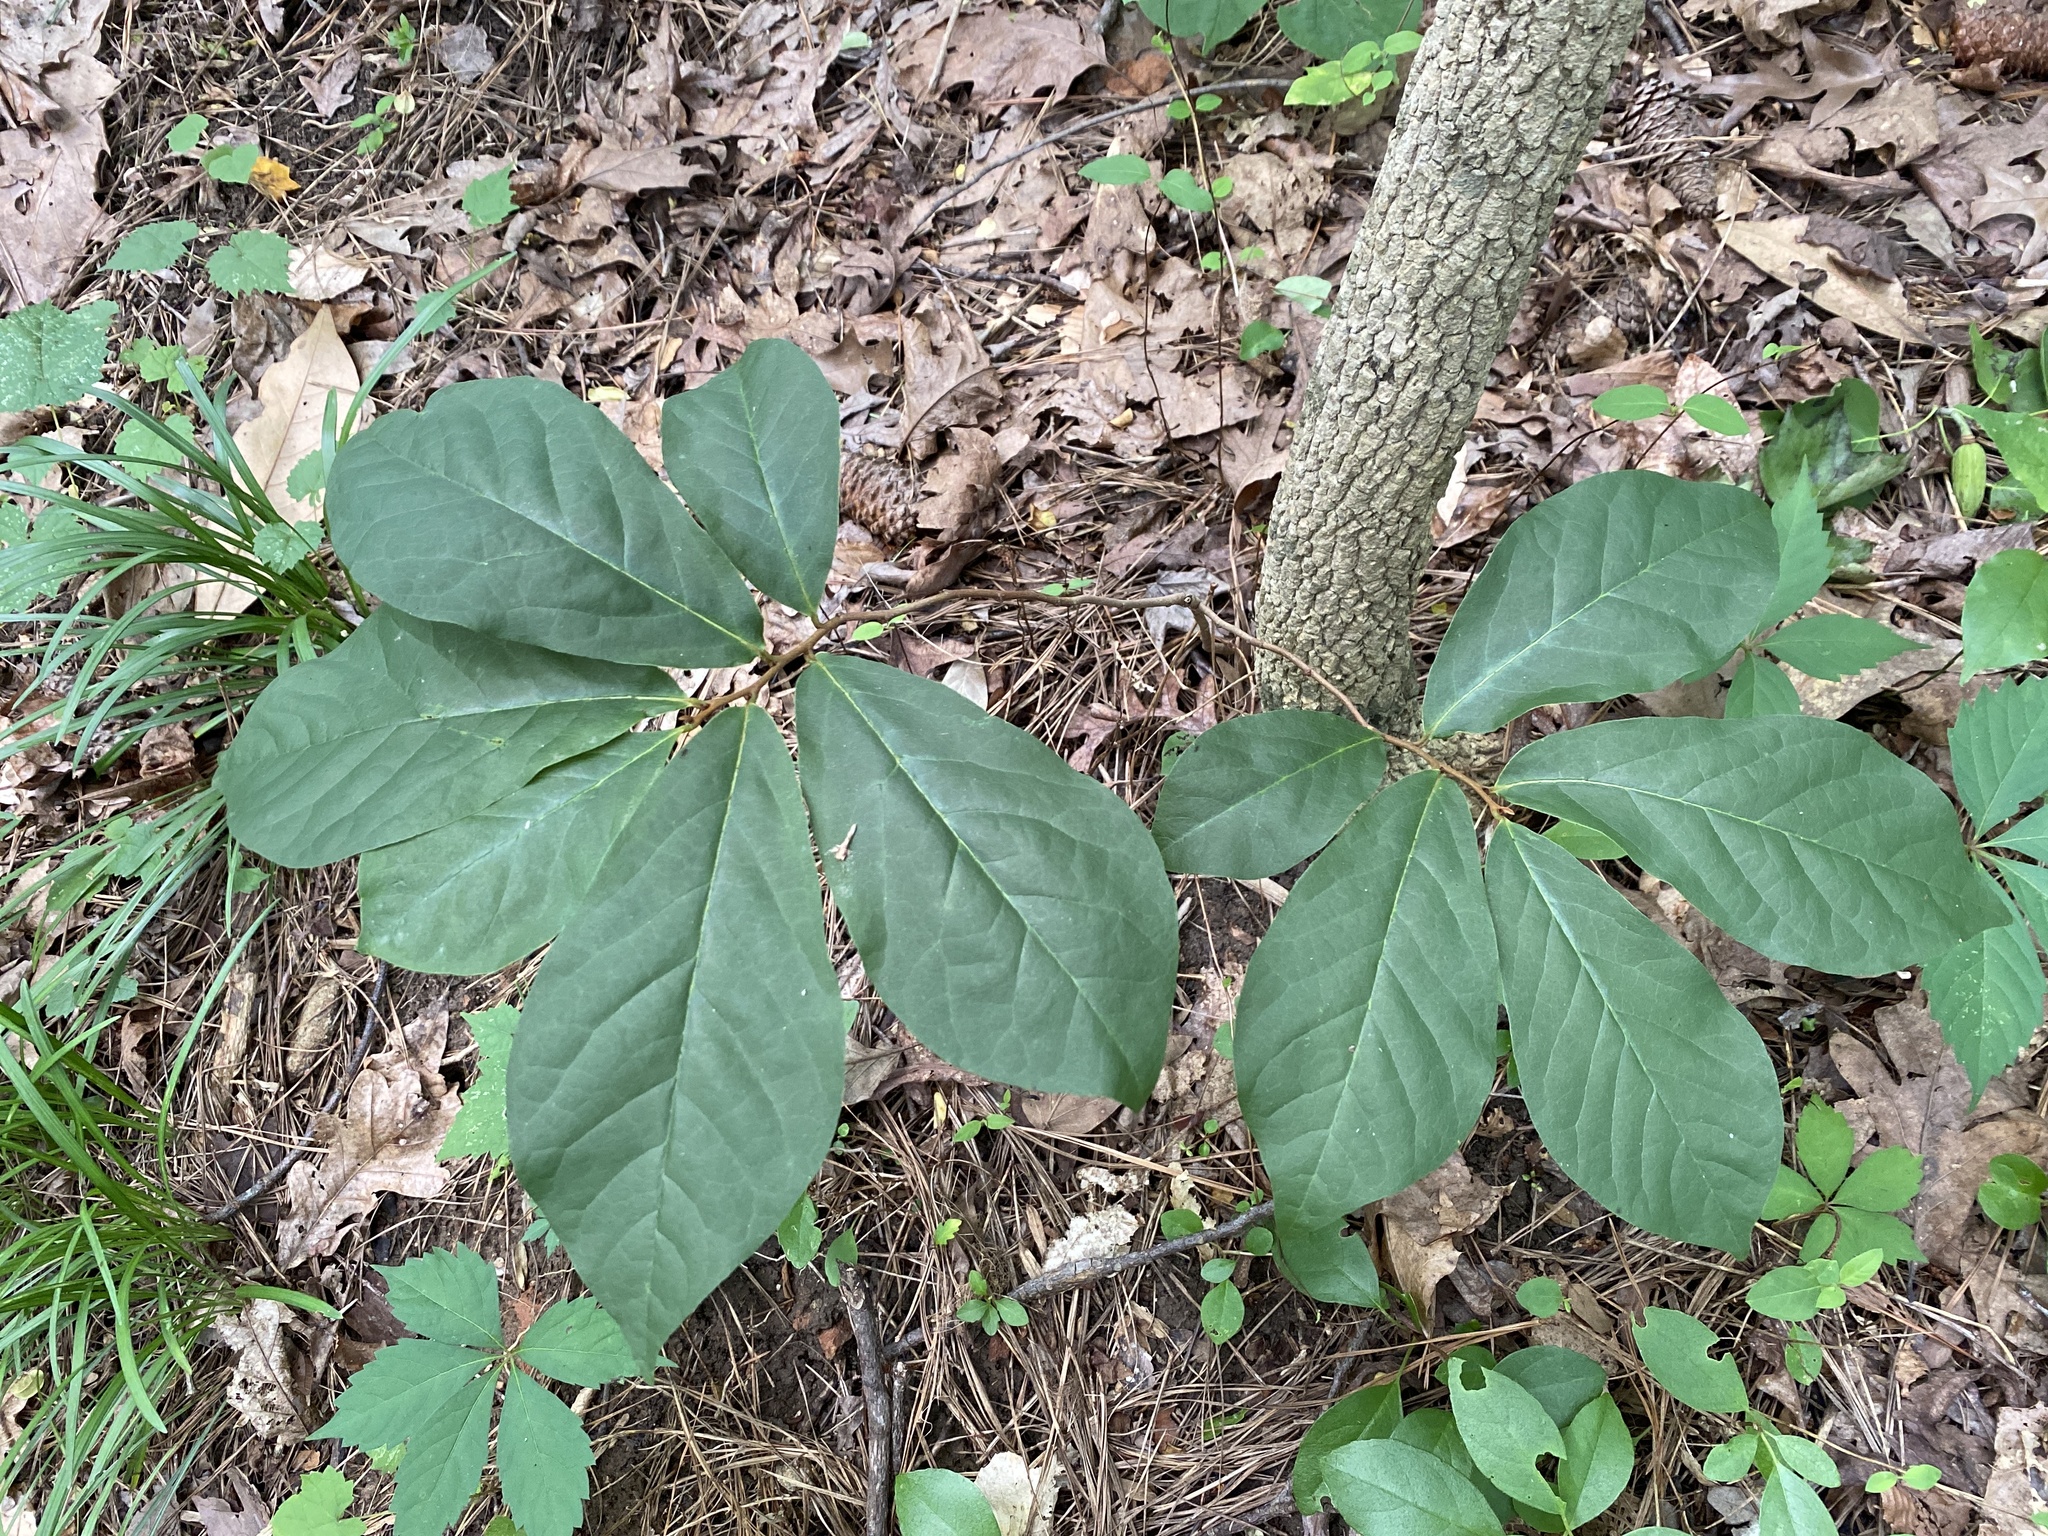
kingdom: Plantae
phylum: Tracheophyta
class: Magnoliopsida
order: Magnoliales
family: Annonaceae
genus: Asimina
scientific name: Asimina parviflora
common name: Dwarf pawpaw
